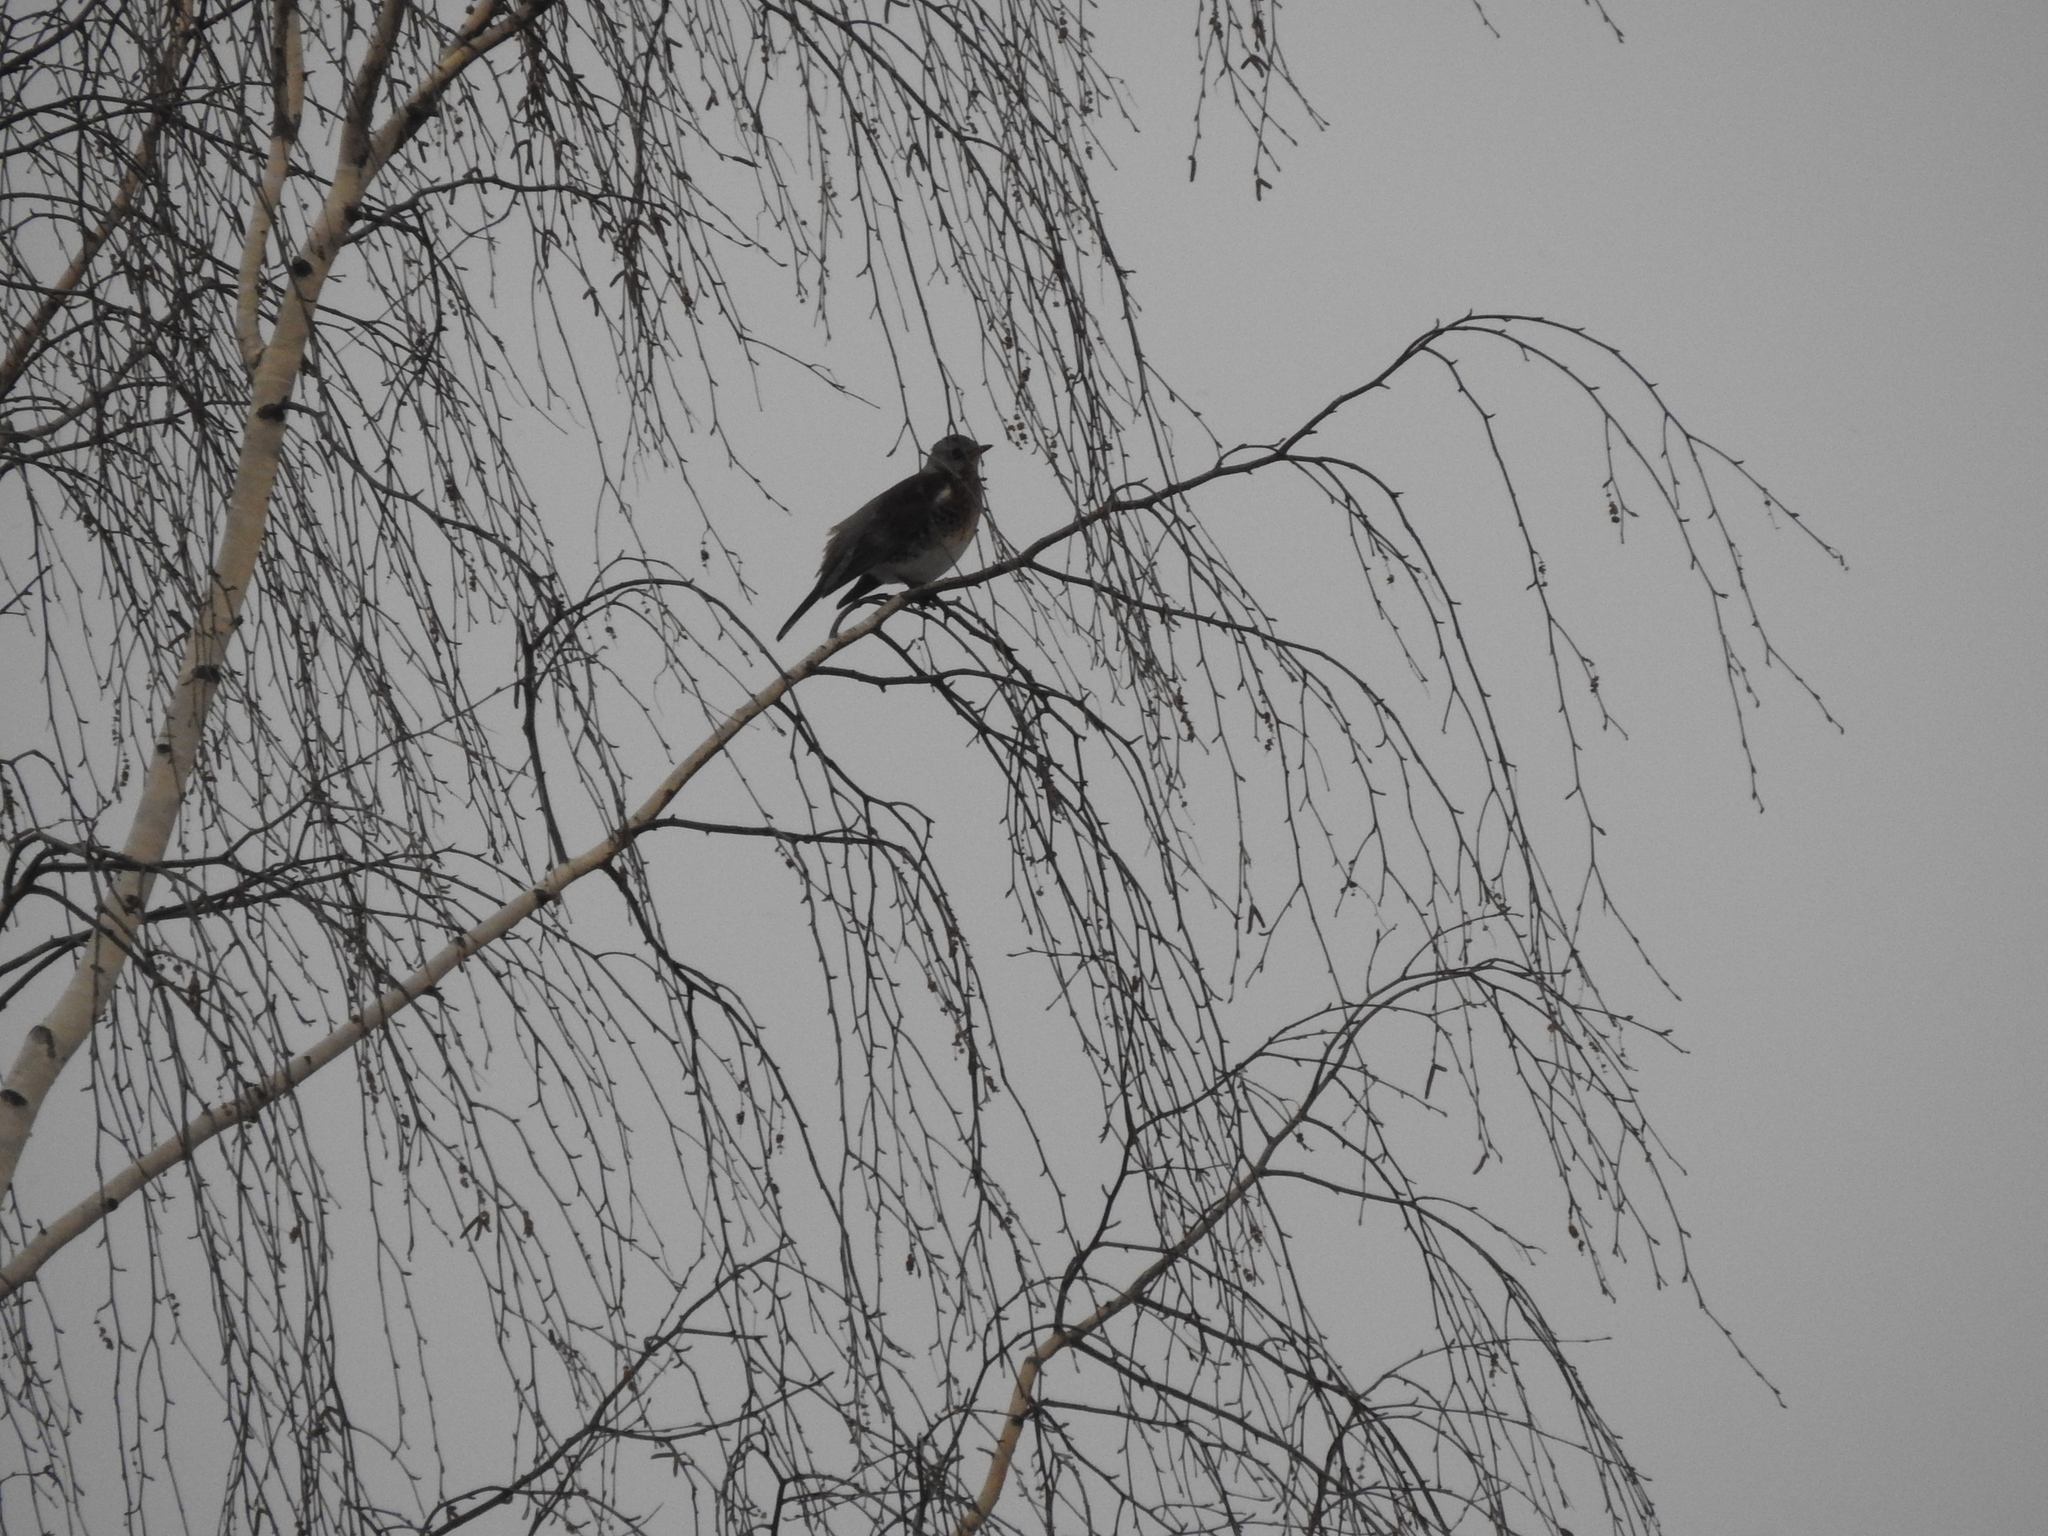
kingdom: Animalia
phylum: Chordata
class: Aves
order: Passeriformes
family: Turdidae
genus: Turdus
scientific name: Turdus pilaris
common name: Fieldfare
